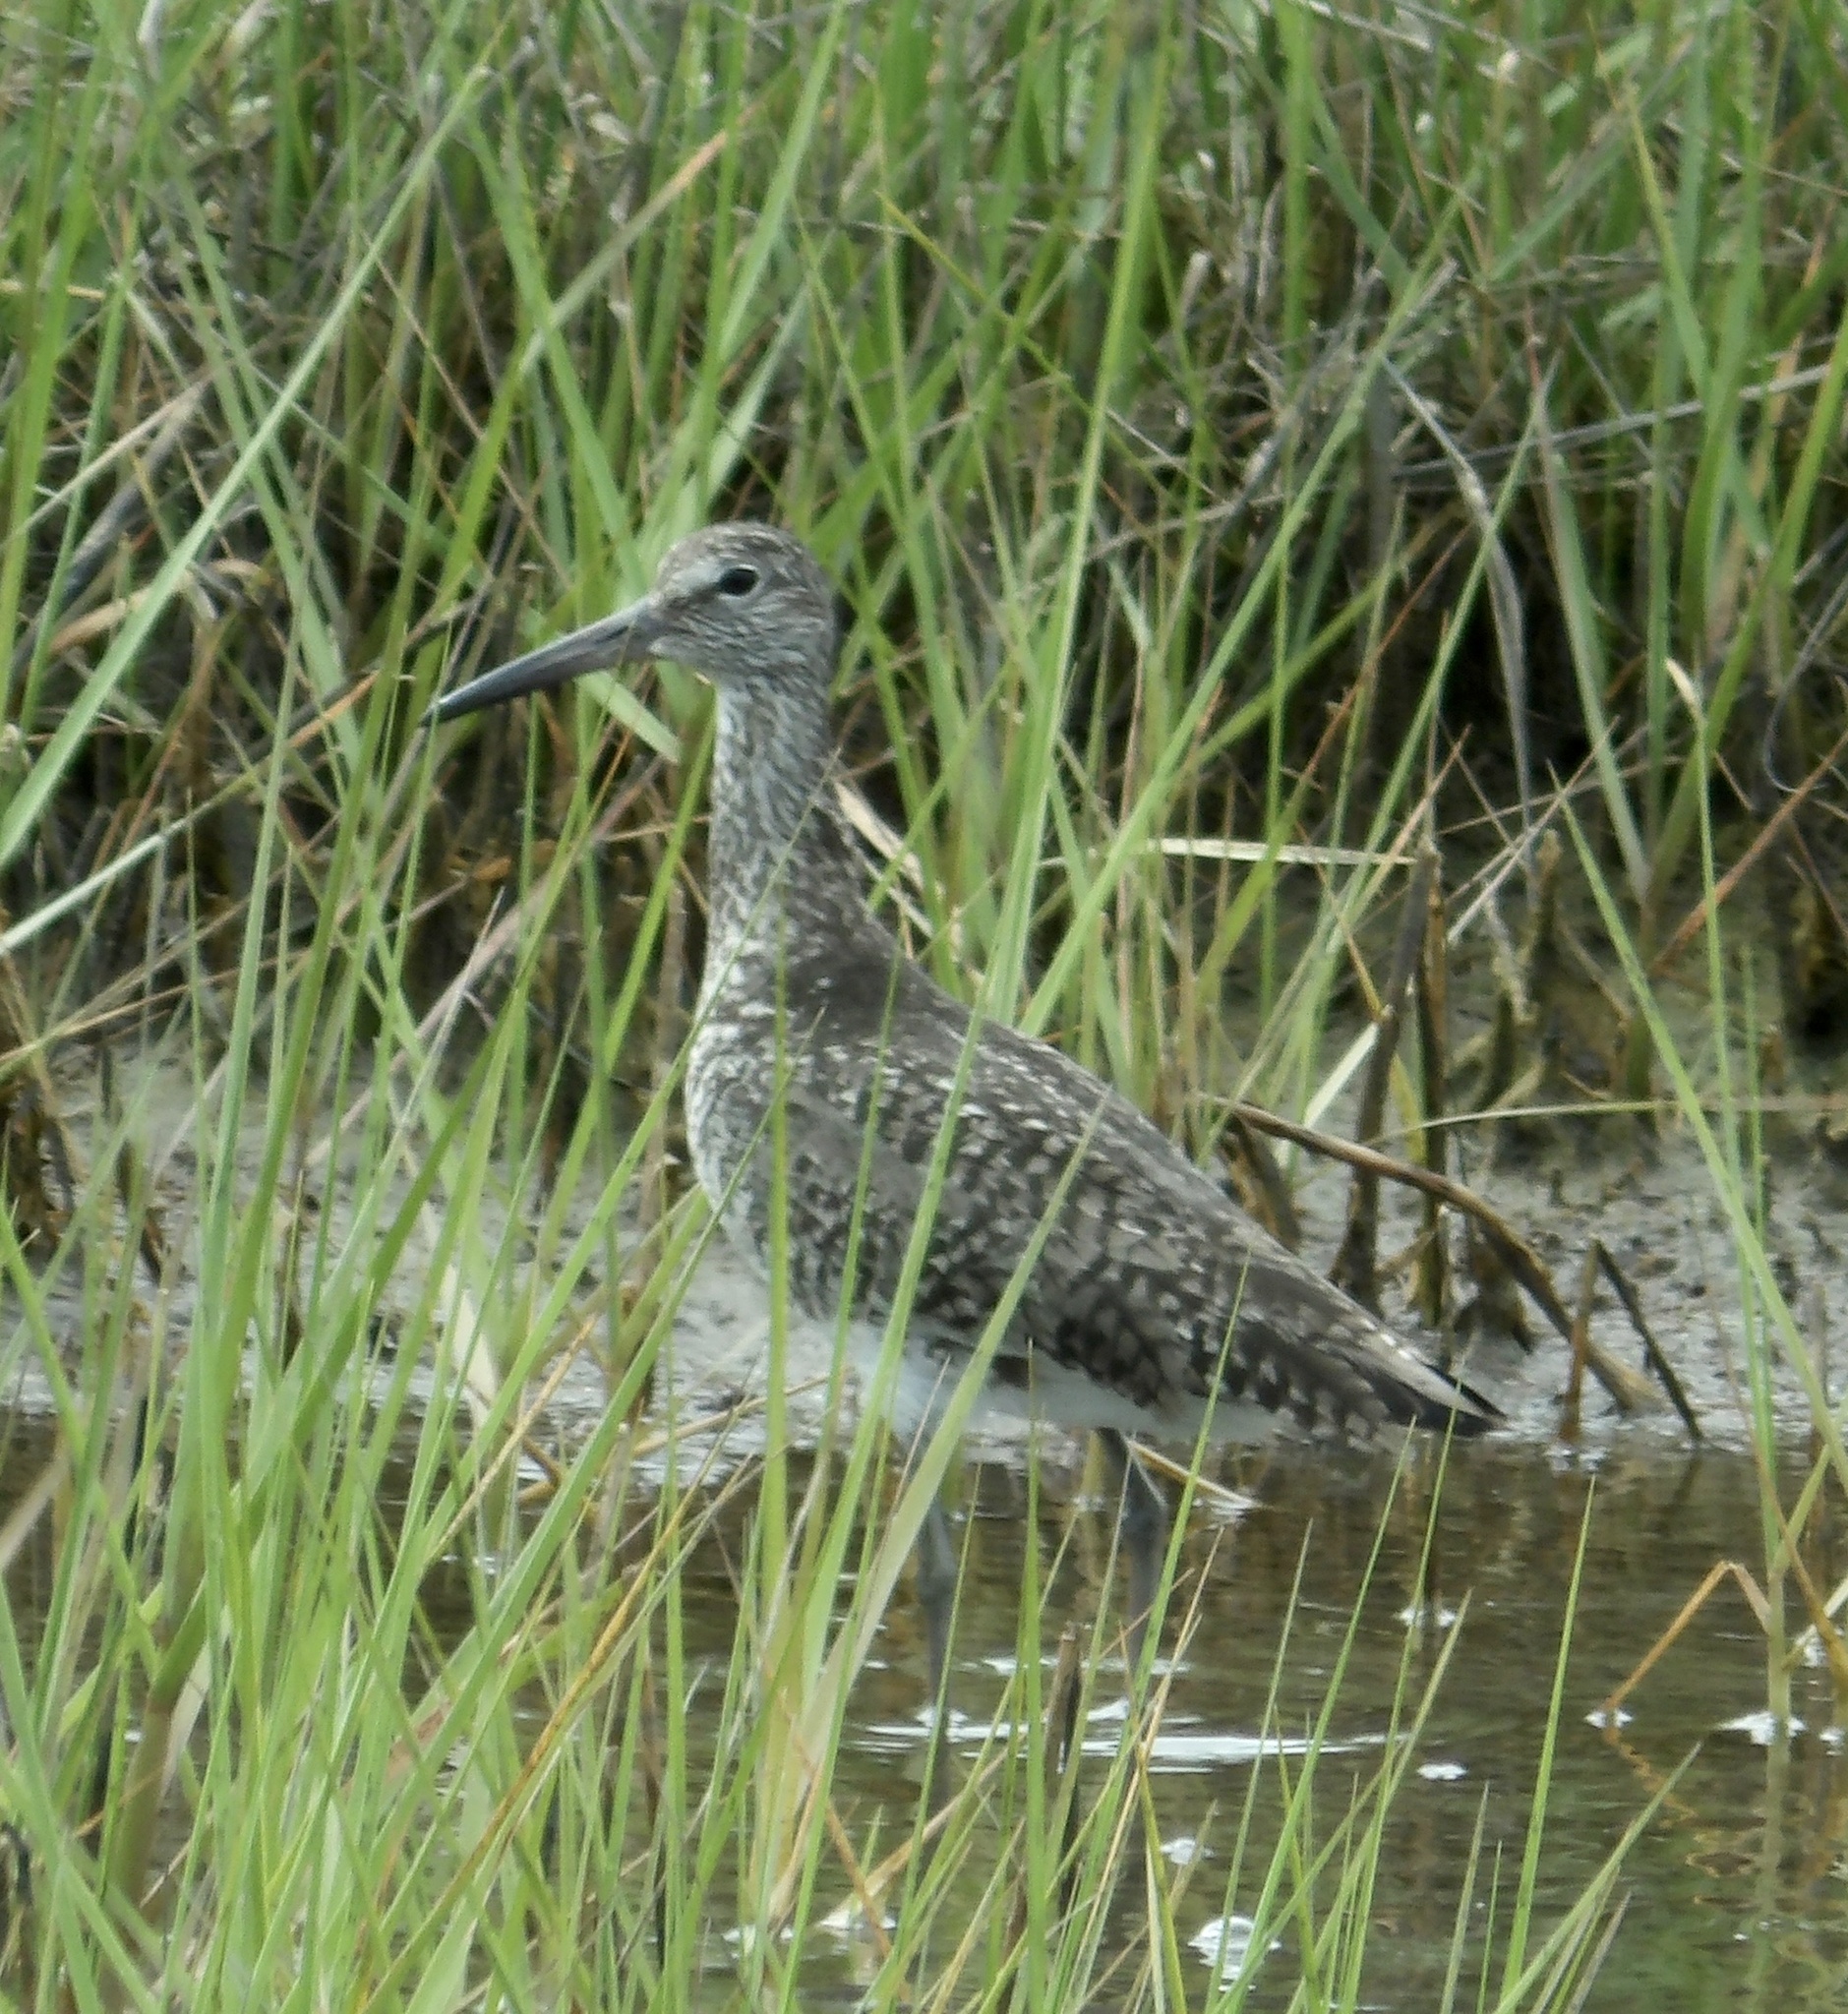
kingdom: Animalia
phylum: Chordata
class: Aves
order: Charadriiformes
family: Scolopacidae
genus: Tringa
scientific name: Tringa semipalmata
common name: Willet
